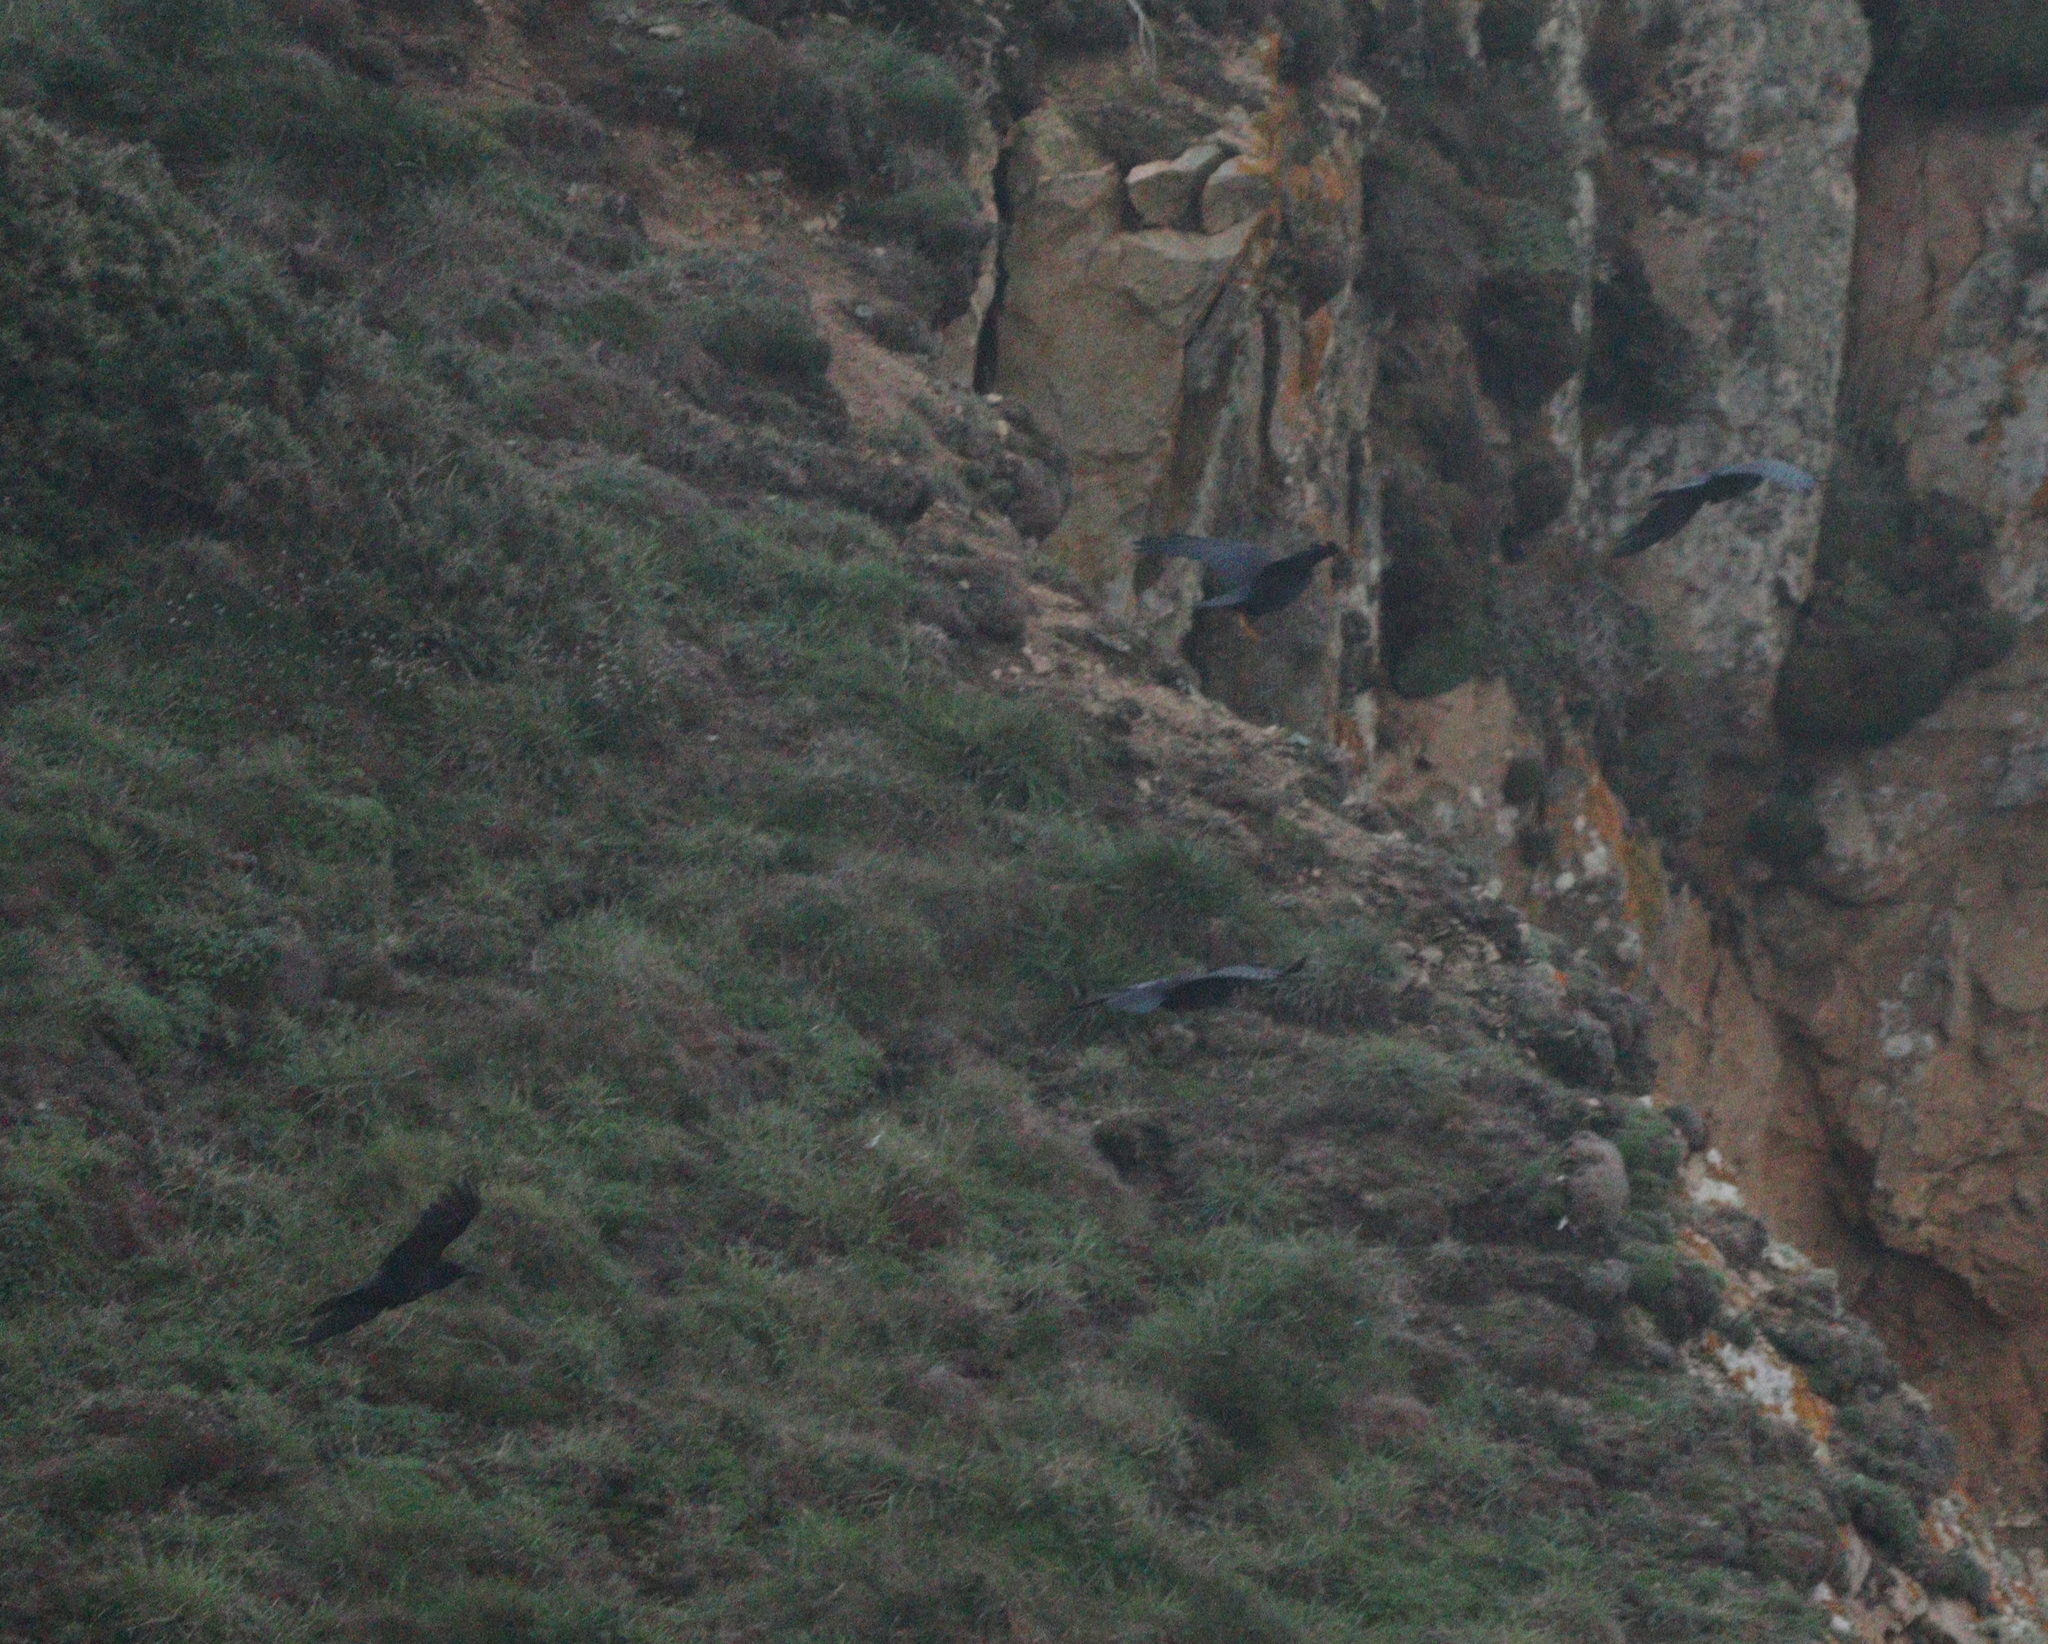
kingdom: Animalia
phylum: Chordata
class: Aves
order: Passeriformes
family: Corvidae
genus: Corvus
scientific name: Corvus corone
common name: Carrion crow
